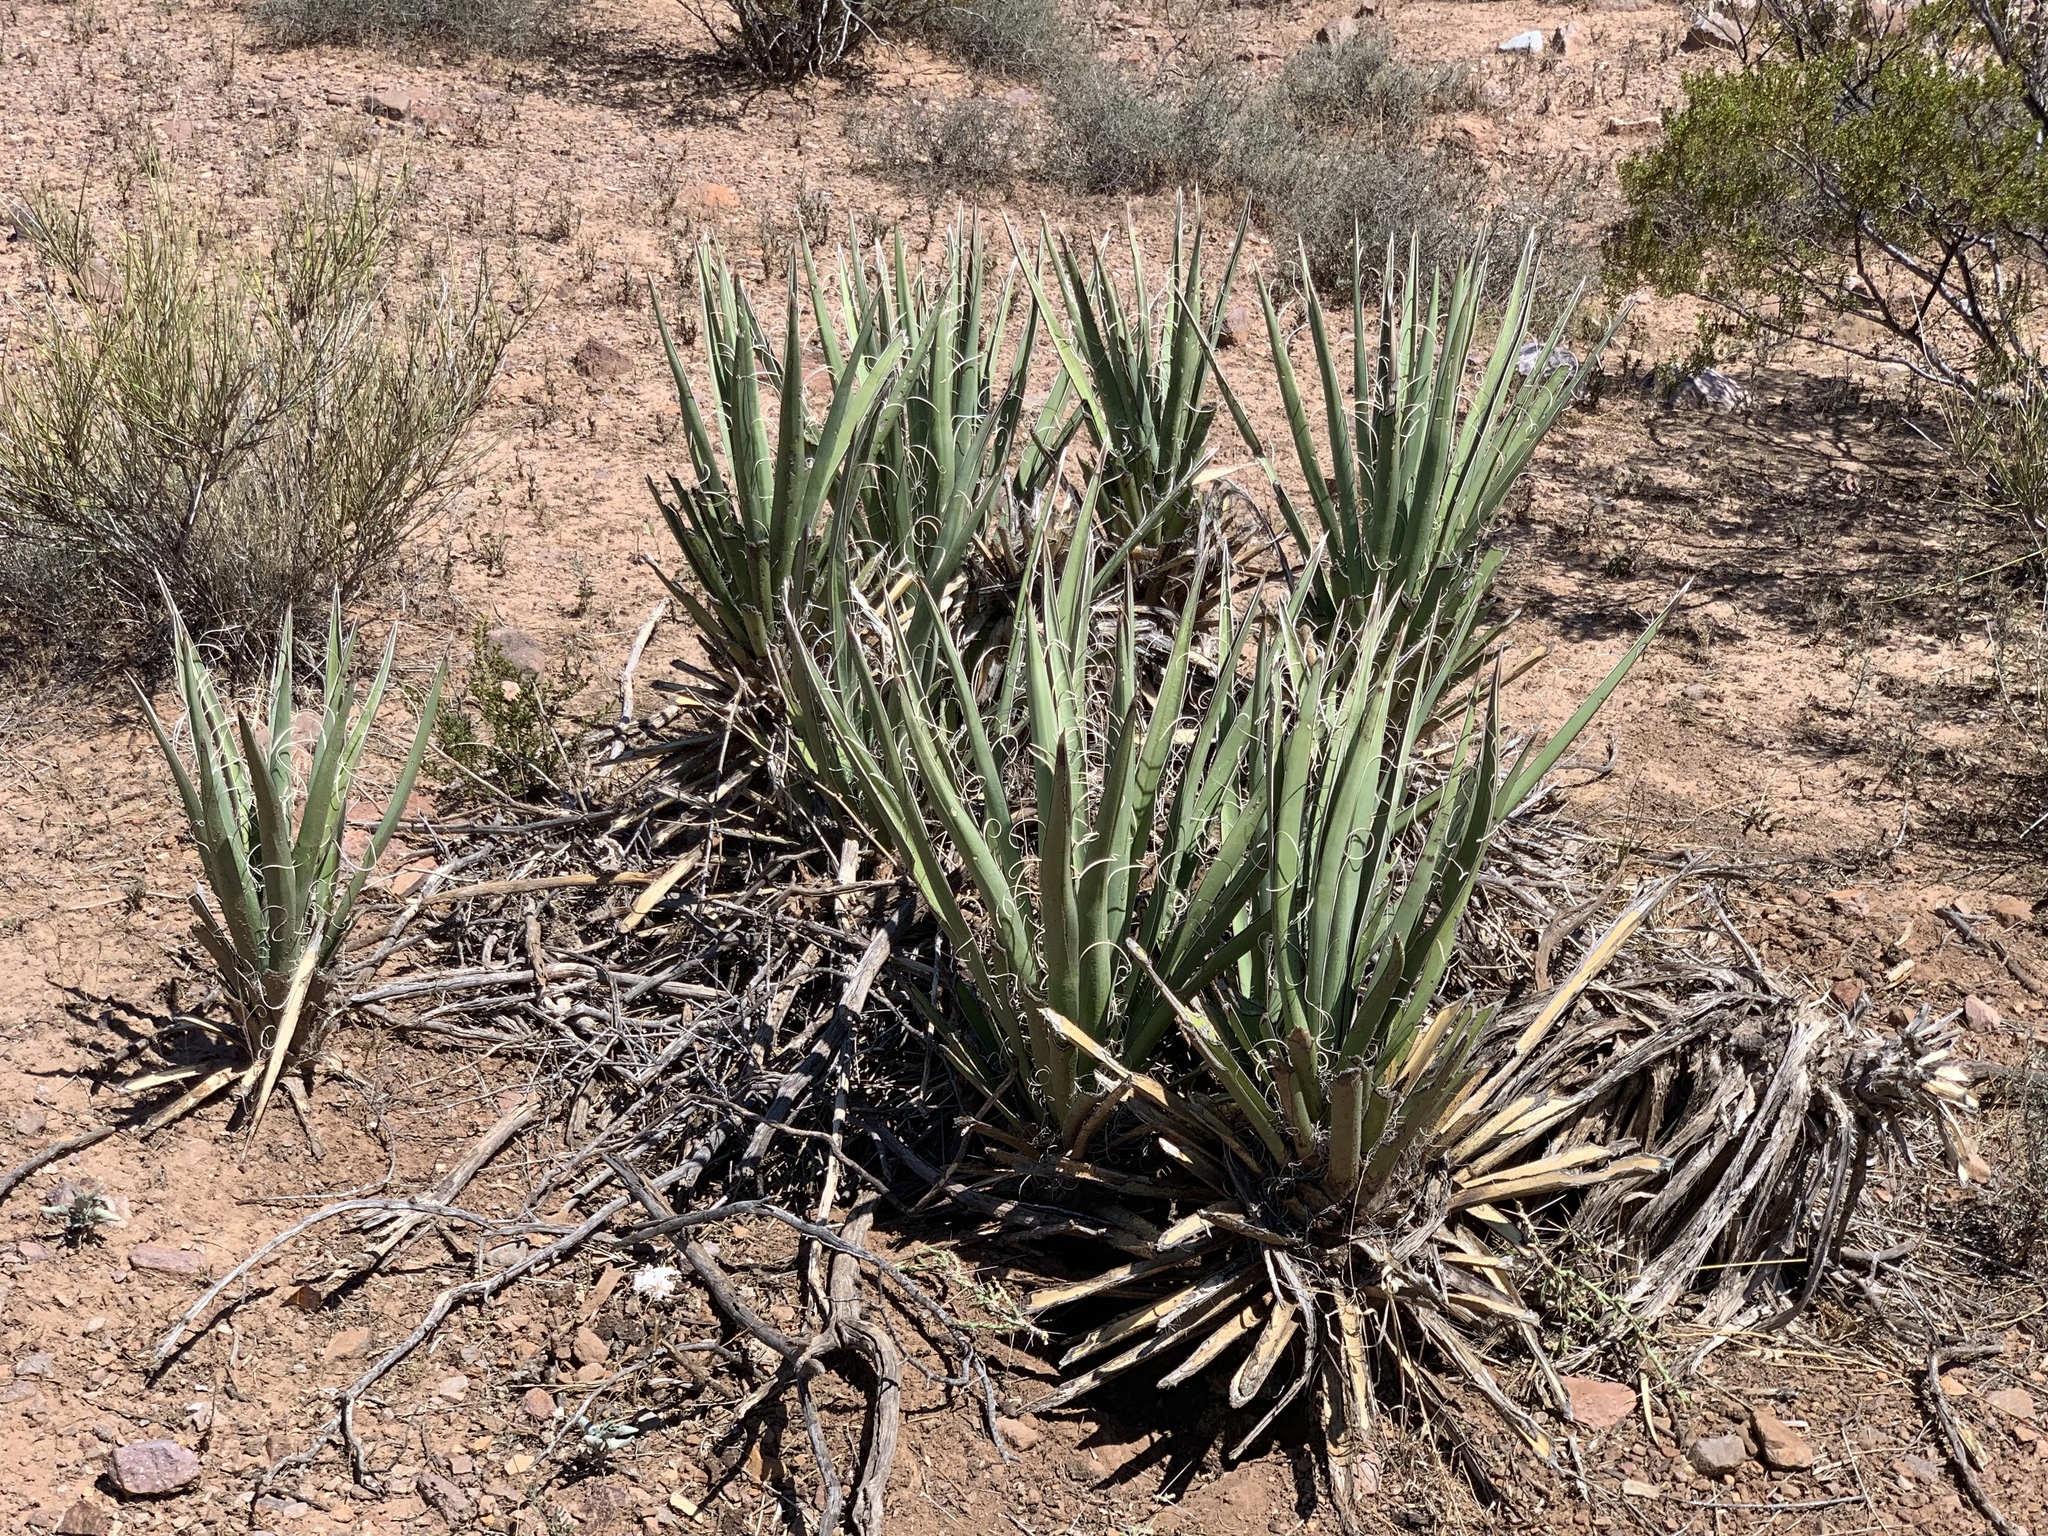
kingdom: Plantae
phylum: Tracheophyta
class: Liliopsida
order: Asparagales
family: Asparagaceae
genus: Yucca
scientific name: Yucca baccata
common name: Banana yucca
